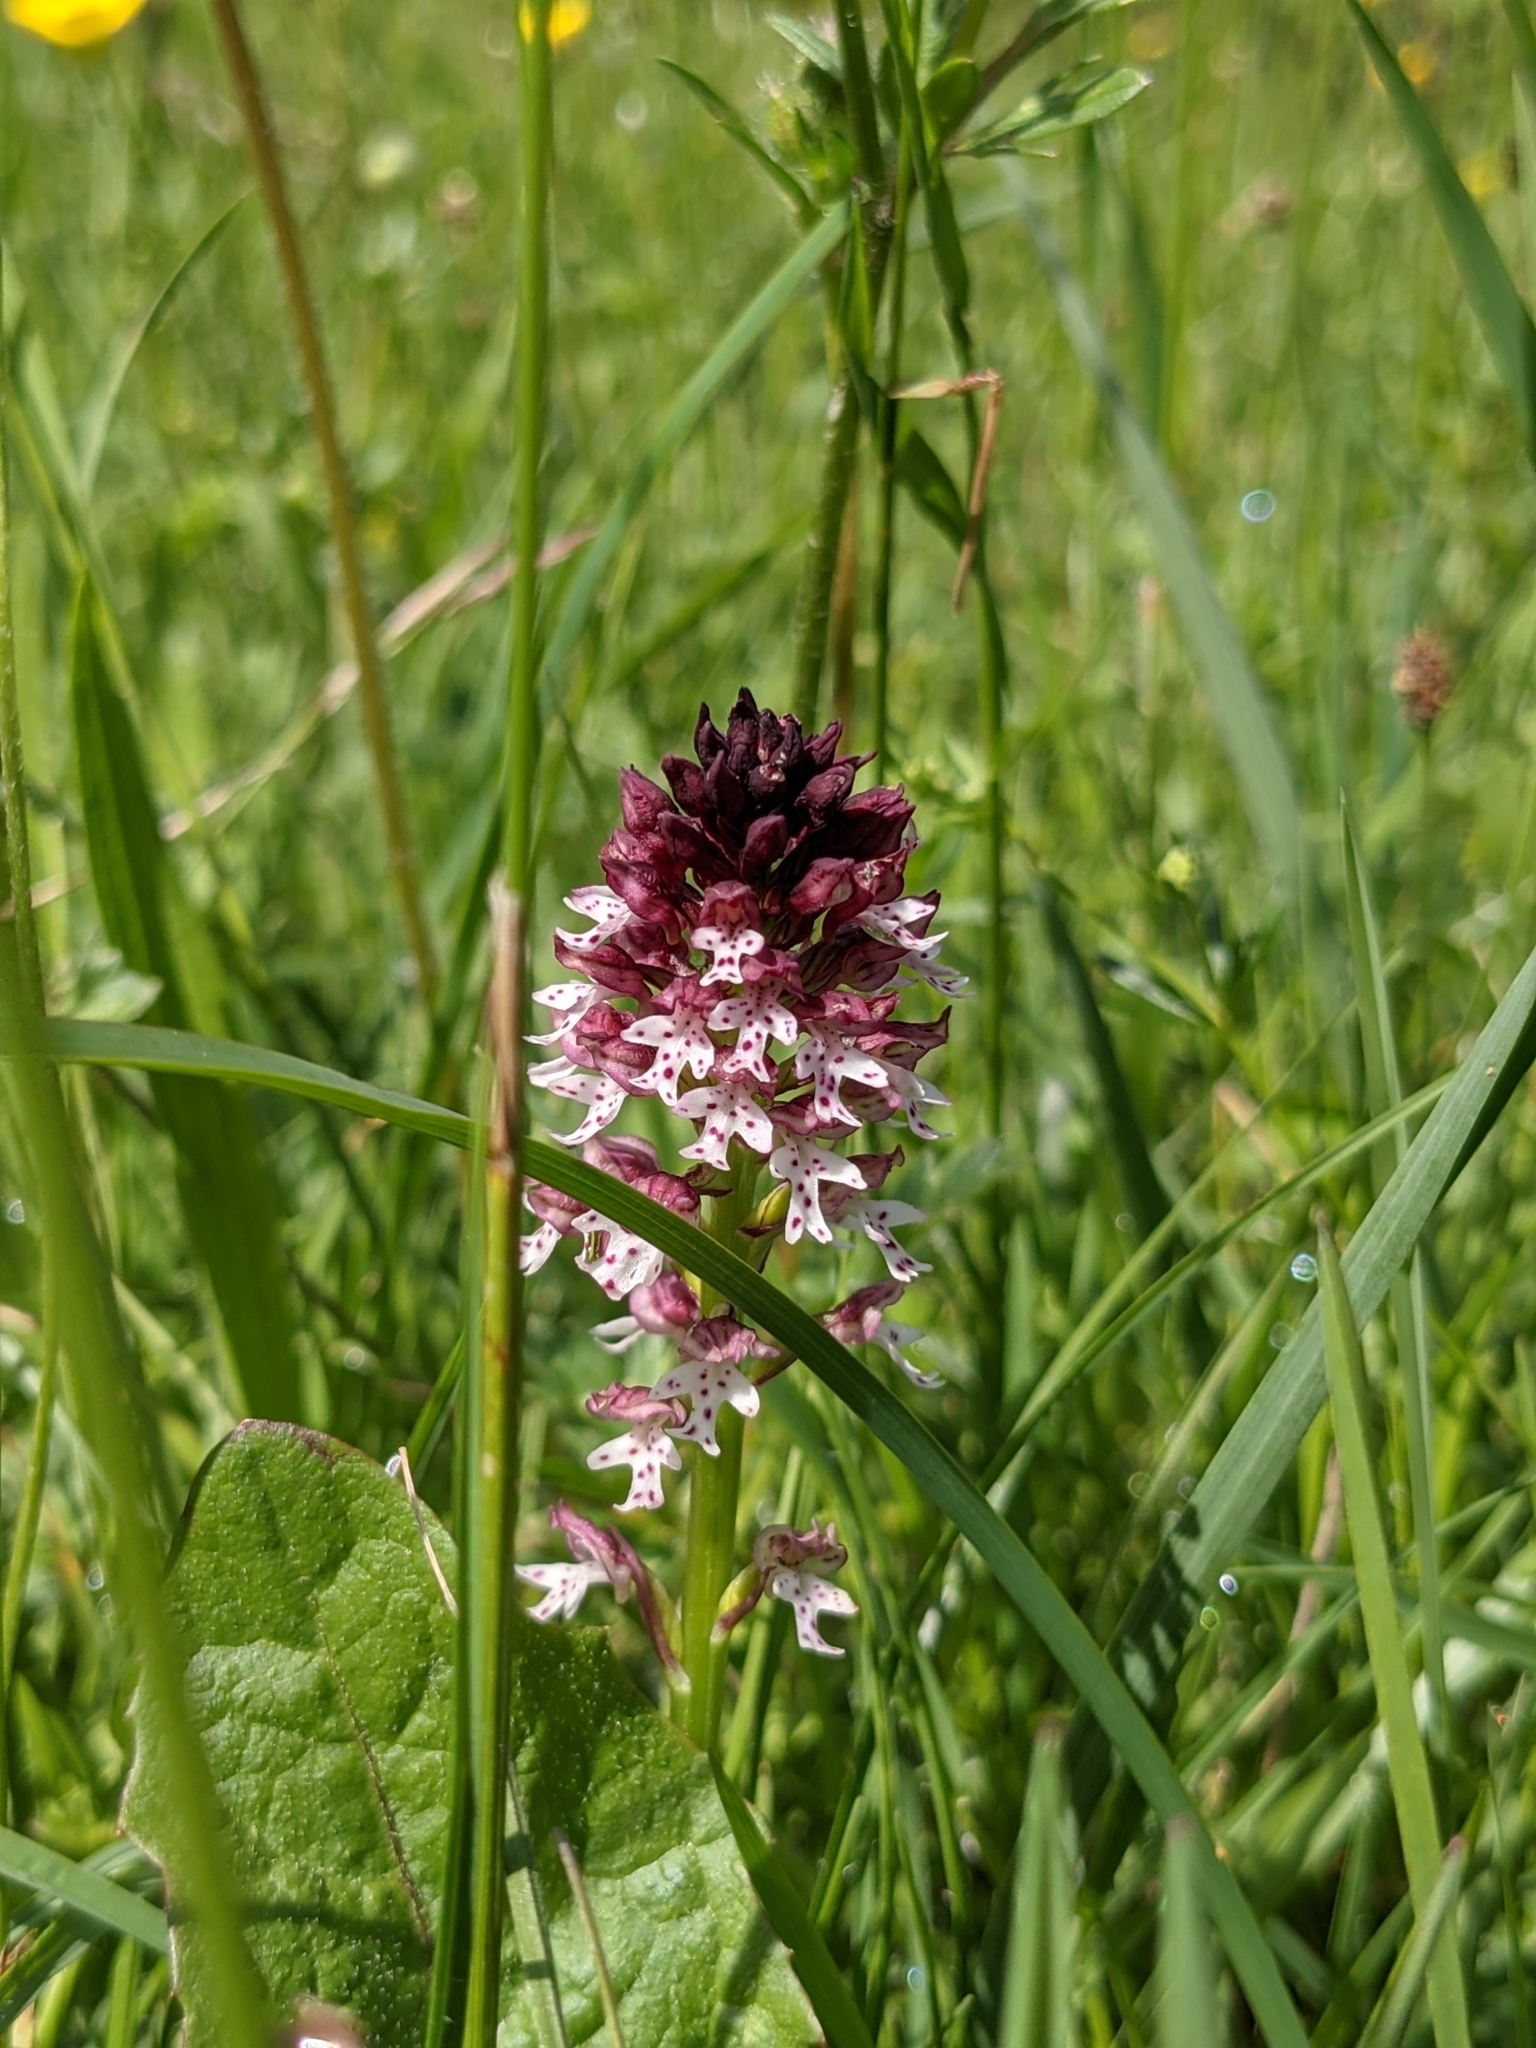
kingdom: Plantae
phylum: Tracheophyta
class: Liliopsida
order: Asparagales
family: Orchidaceae
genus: Neotinea
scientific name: Neotinea ustulata
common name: Burnt orchid
